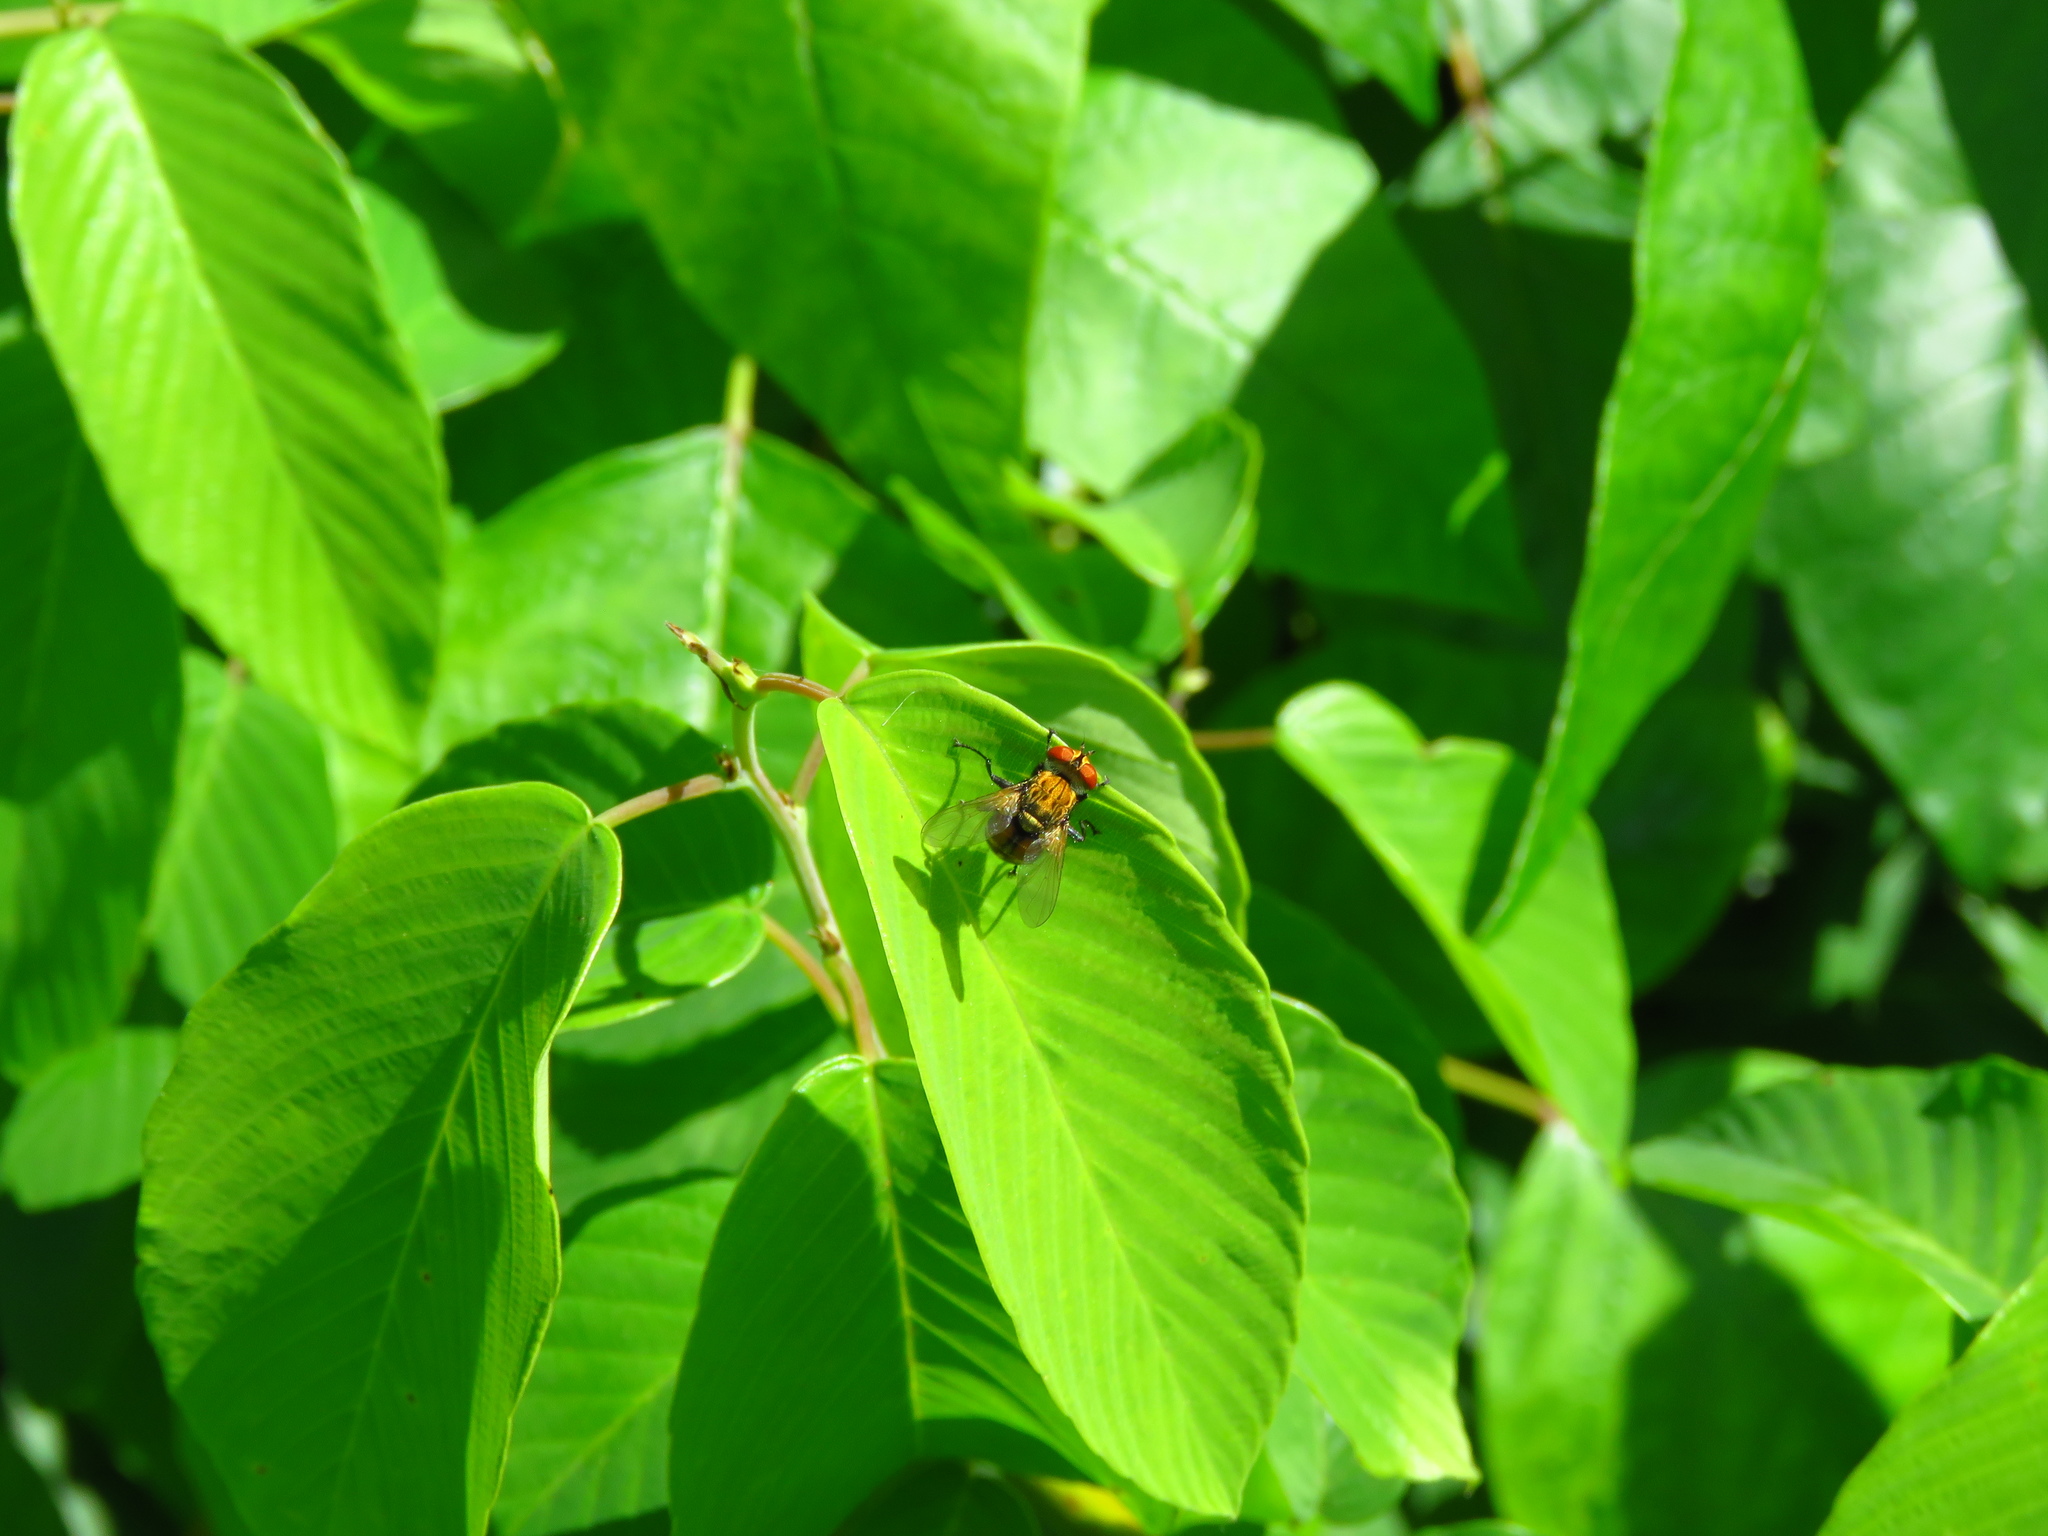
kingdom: Plantae
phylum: Tracheophyta
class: Magnoliopsida
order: Rosales
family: Rhamnaceae
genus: Berchemia
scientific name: Berchemia scandens
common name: Supplejack
